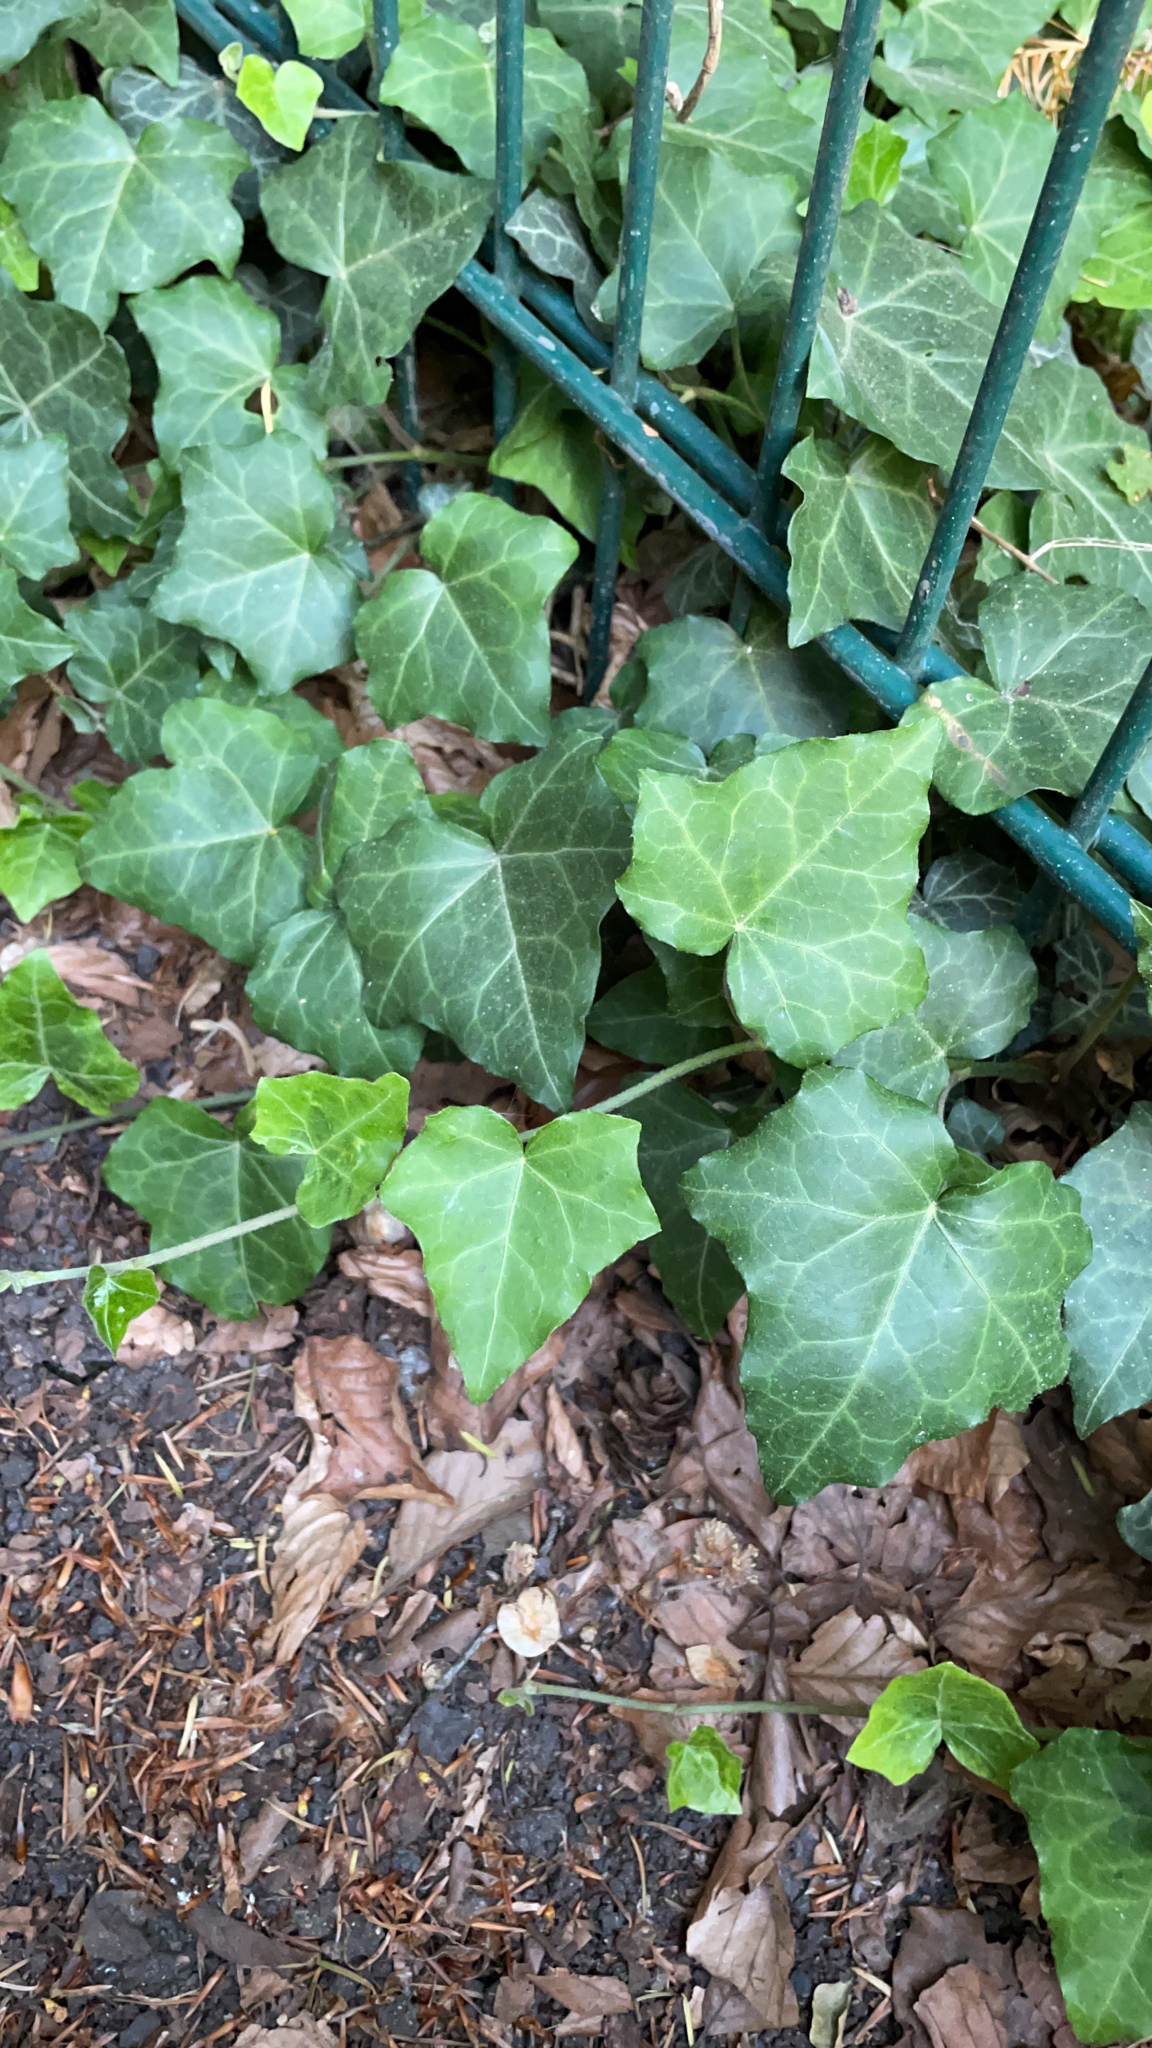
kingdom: Plantae
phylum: Tracheophyta
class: Magnoliopsida
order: Apiales
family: Araliaceae
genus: Hedera
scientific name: Hedera helix
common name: Ivy
